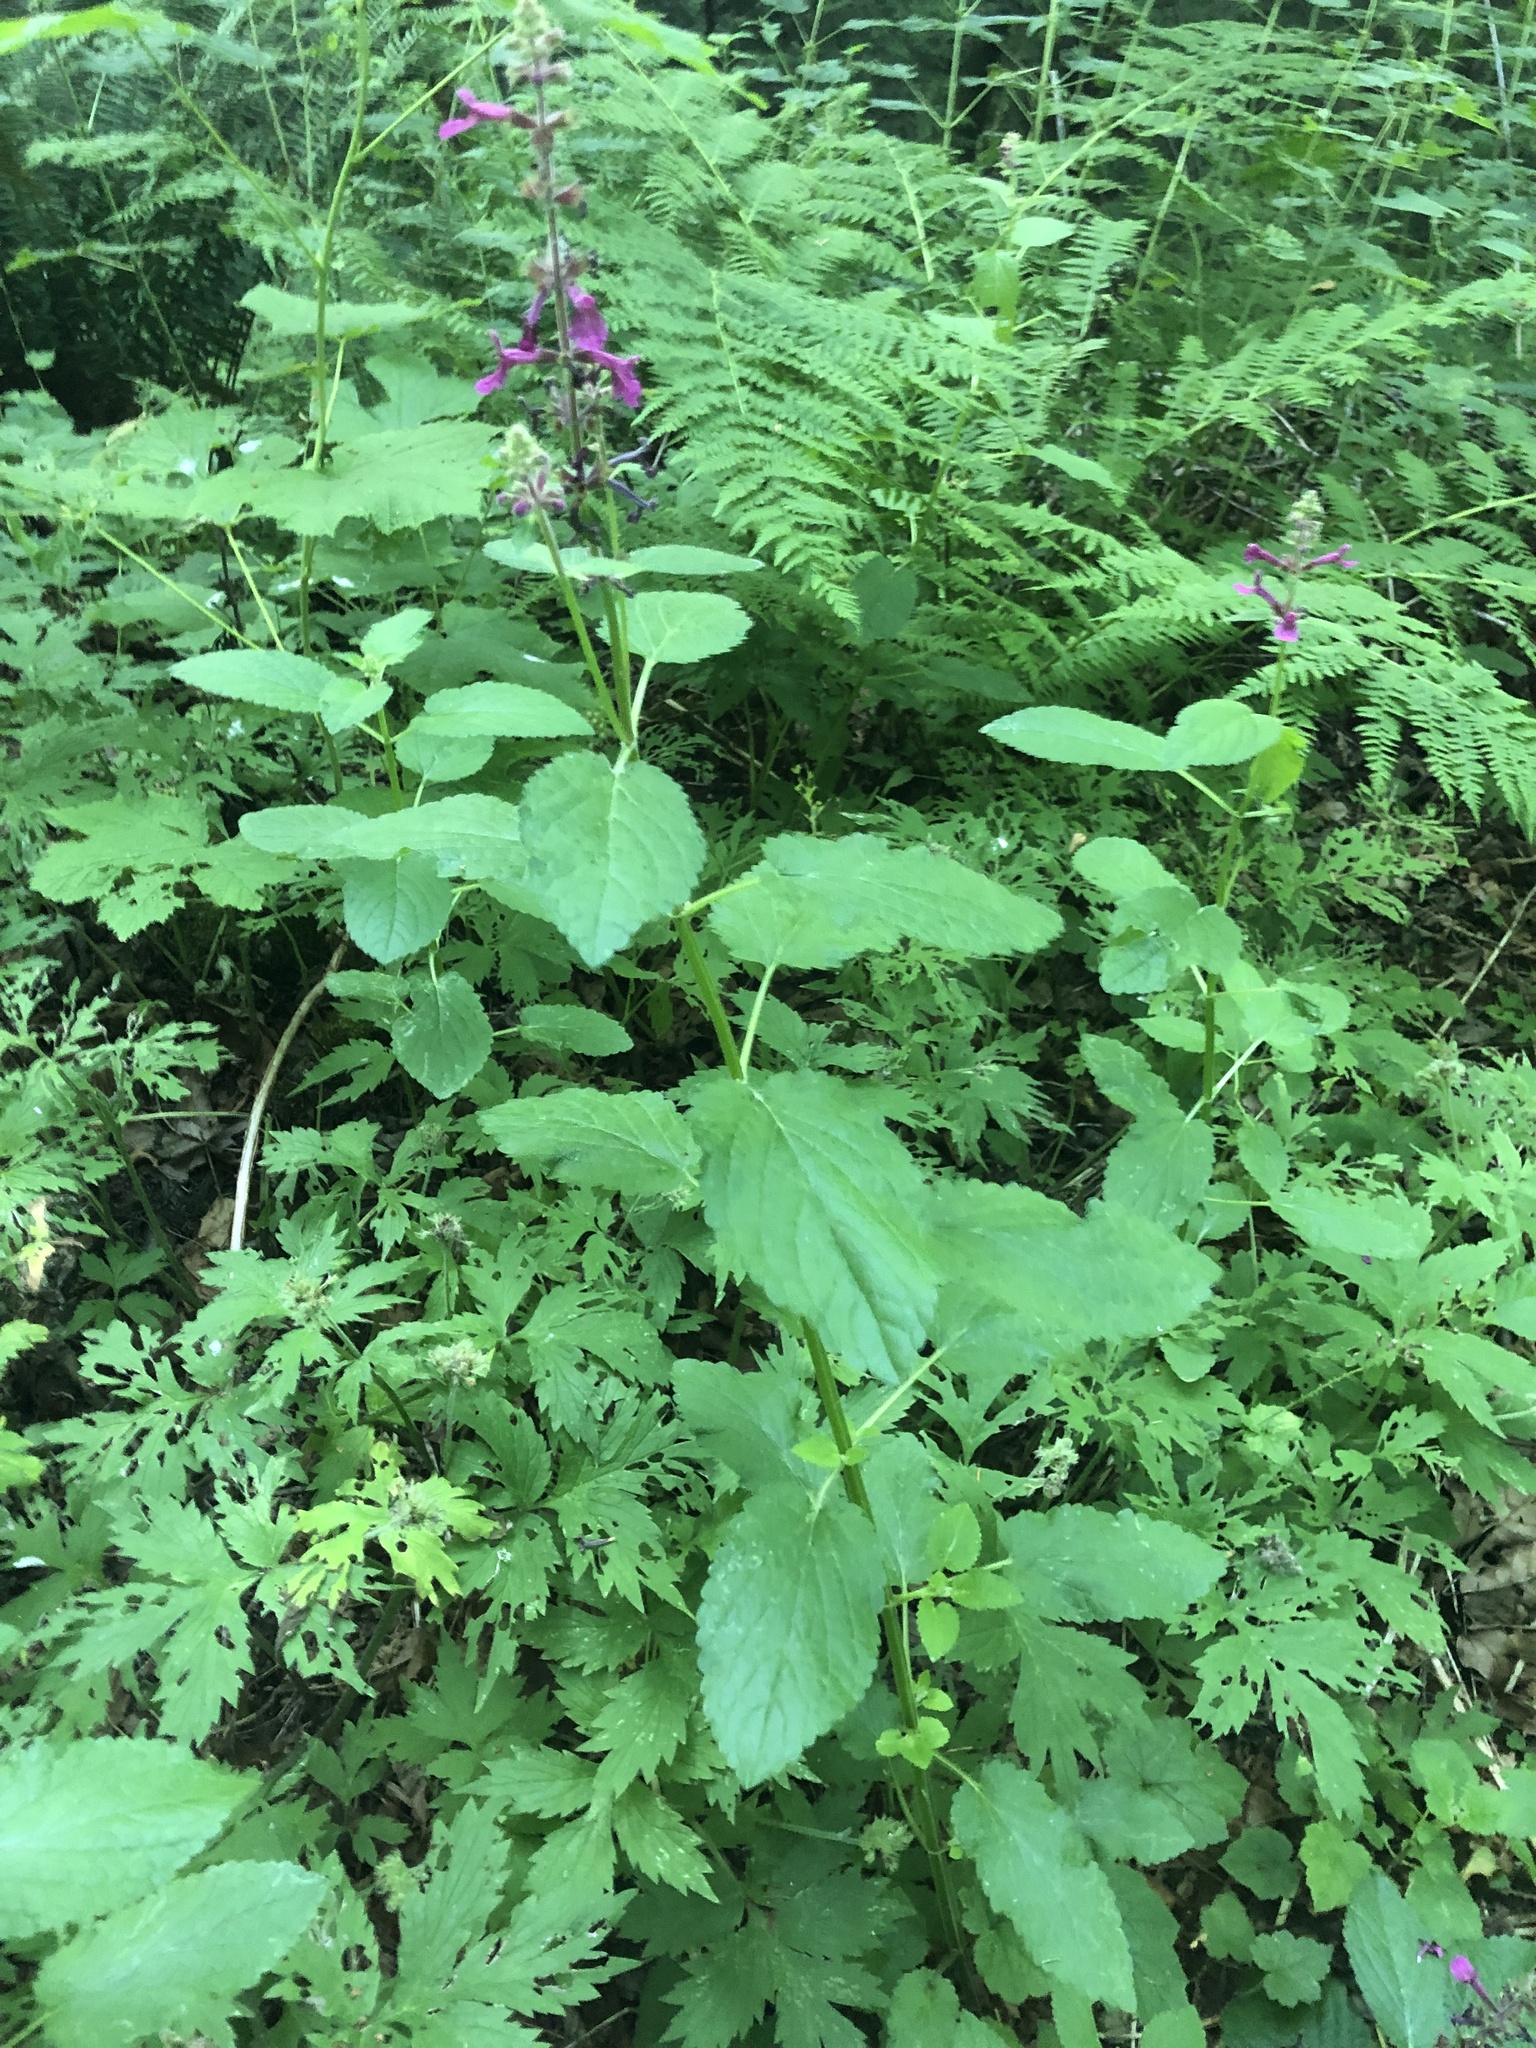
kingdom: Plantae
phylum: Tracheophyta
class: Magnoliopsida
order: Lamiales
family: Lamiaceae
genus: Stachys
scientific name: Stachys chamissonis
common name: Coastal hedge-nettle
